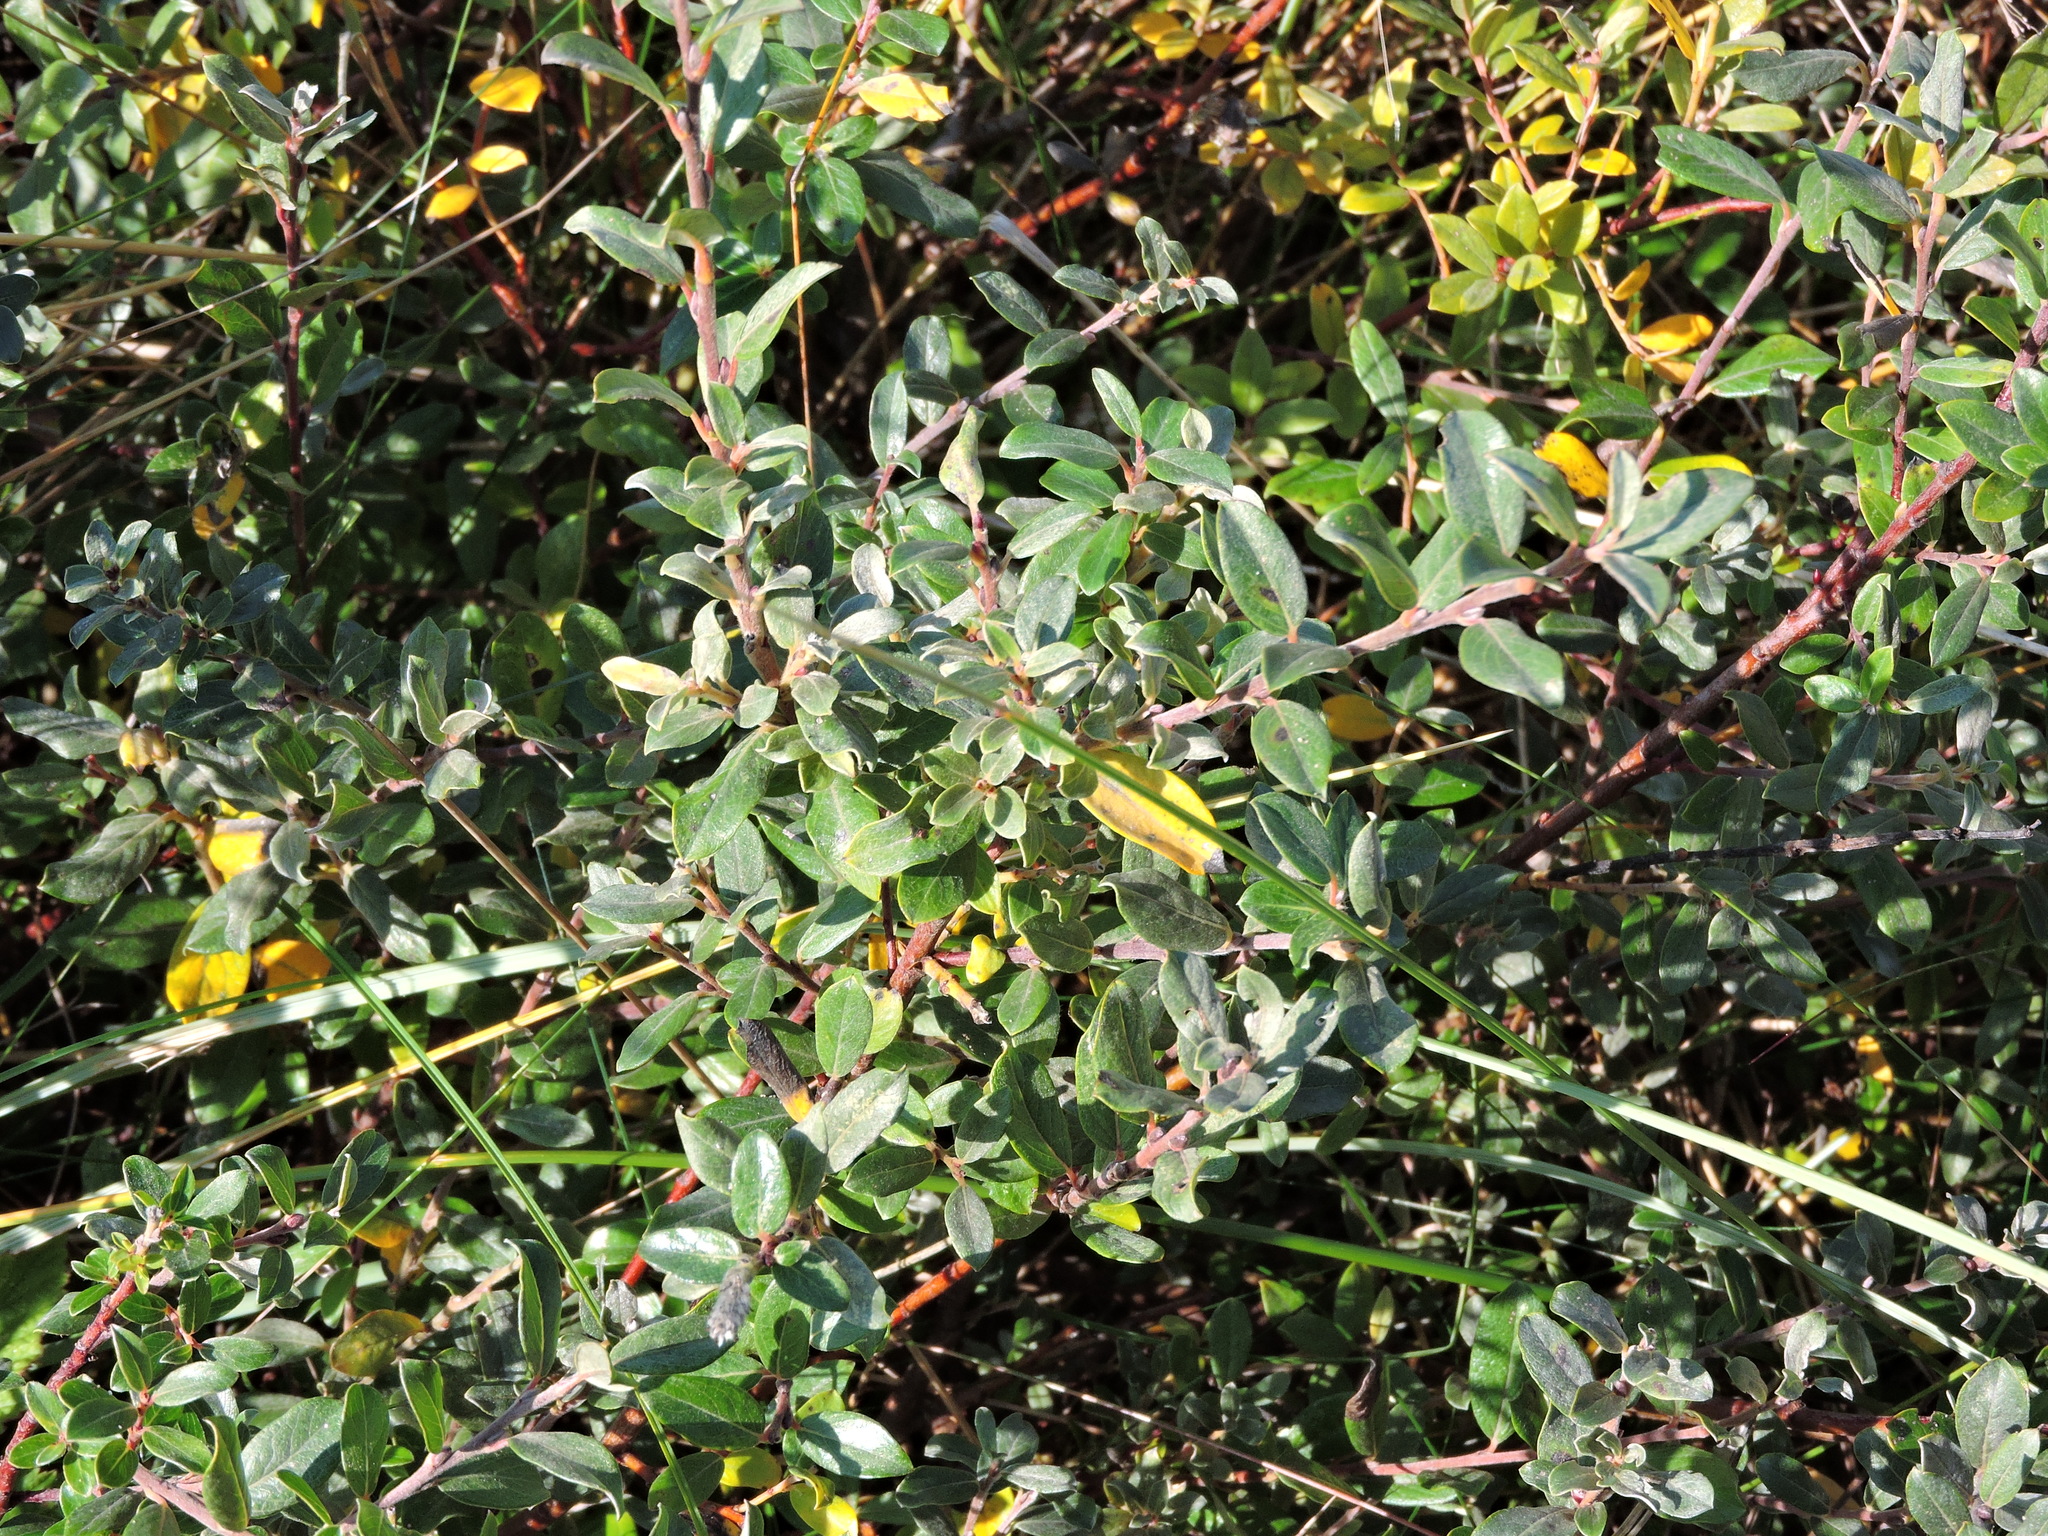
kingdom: Plantae
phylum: Tracheophyta
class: Magnoliopsida
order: Malpighiales
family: Salicaceae
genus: Salix
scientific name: Salix repens
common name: Creeping willow
